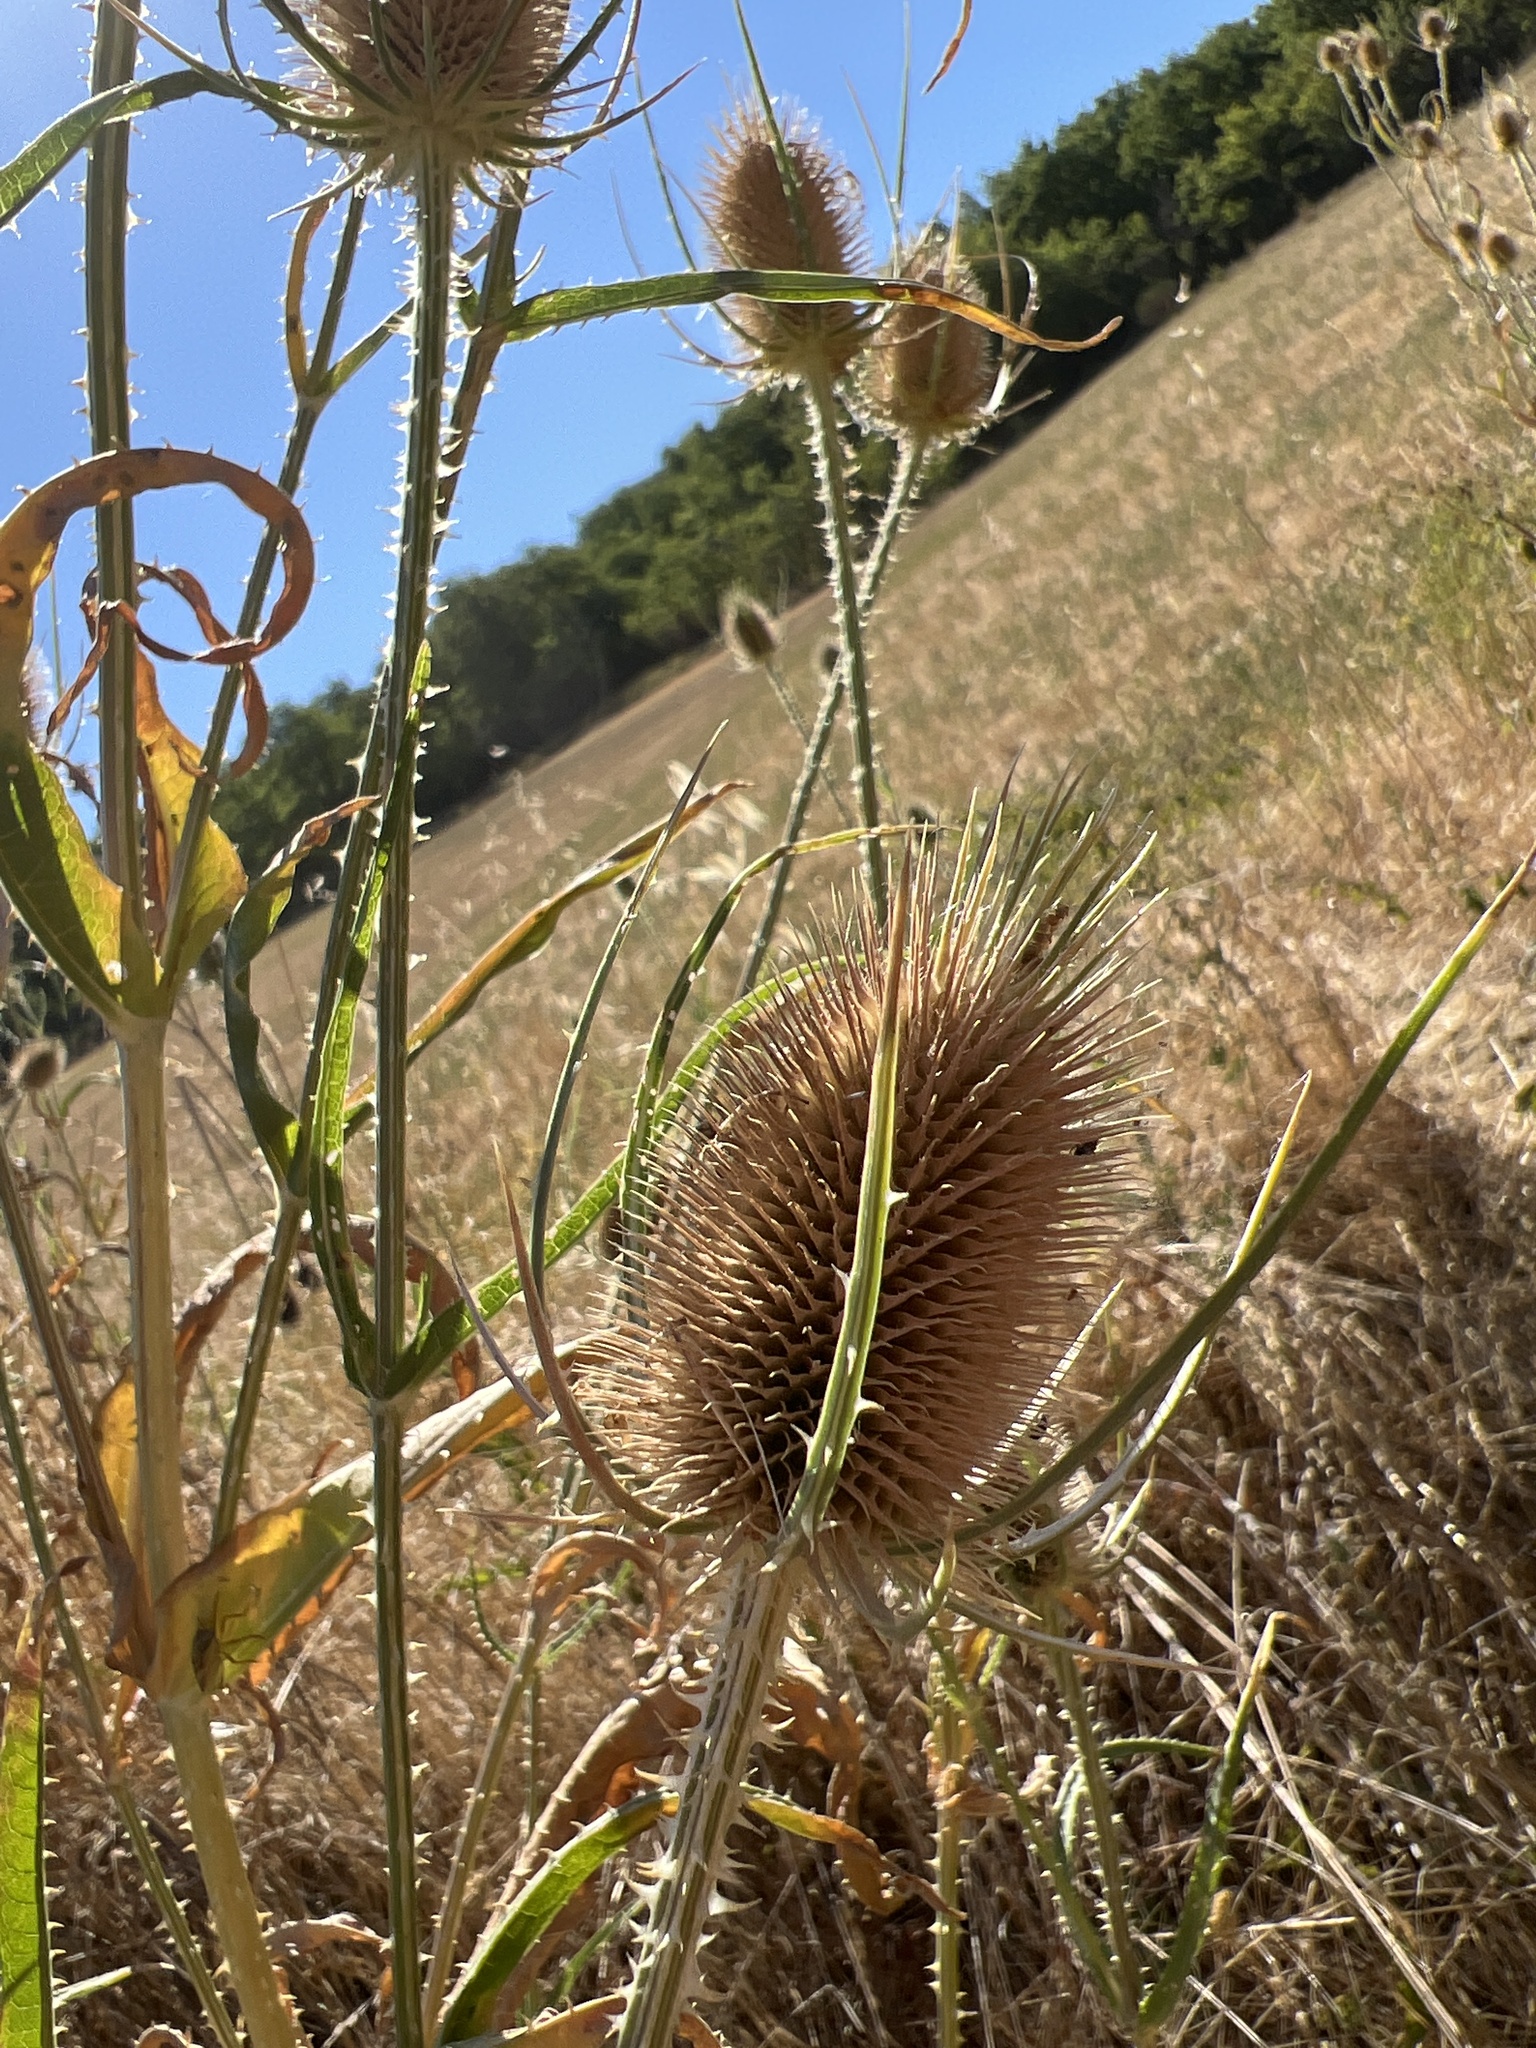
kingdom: Plantae
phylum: Tracheophyta
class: Magnoliopsida
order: Dipsacales
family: Caprifoliaceae
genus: Dipsacus
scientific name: Dipsacus fullonum
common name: Teasel
